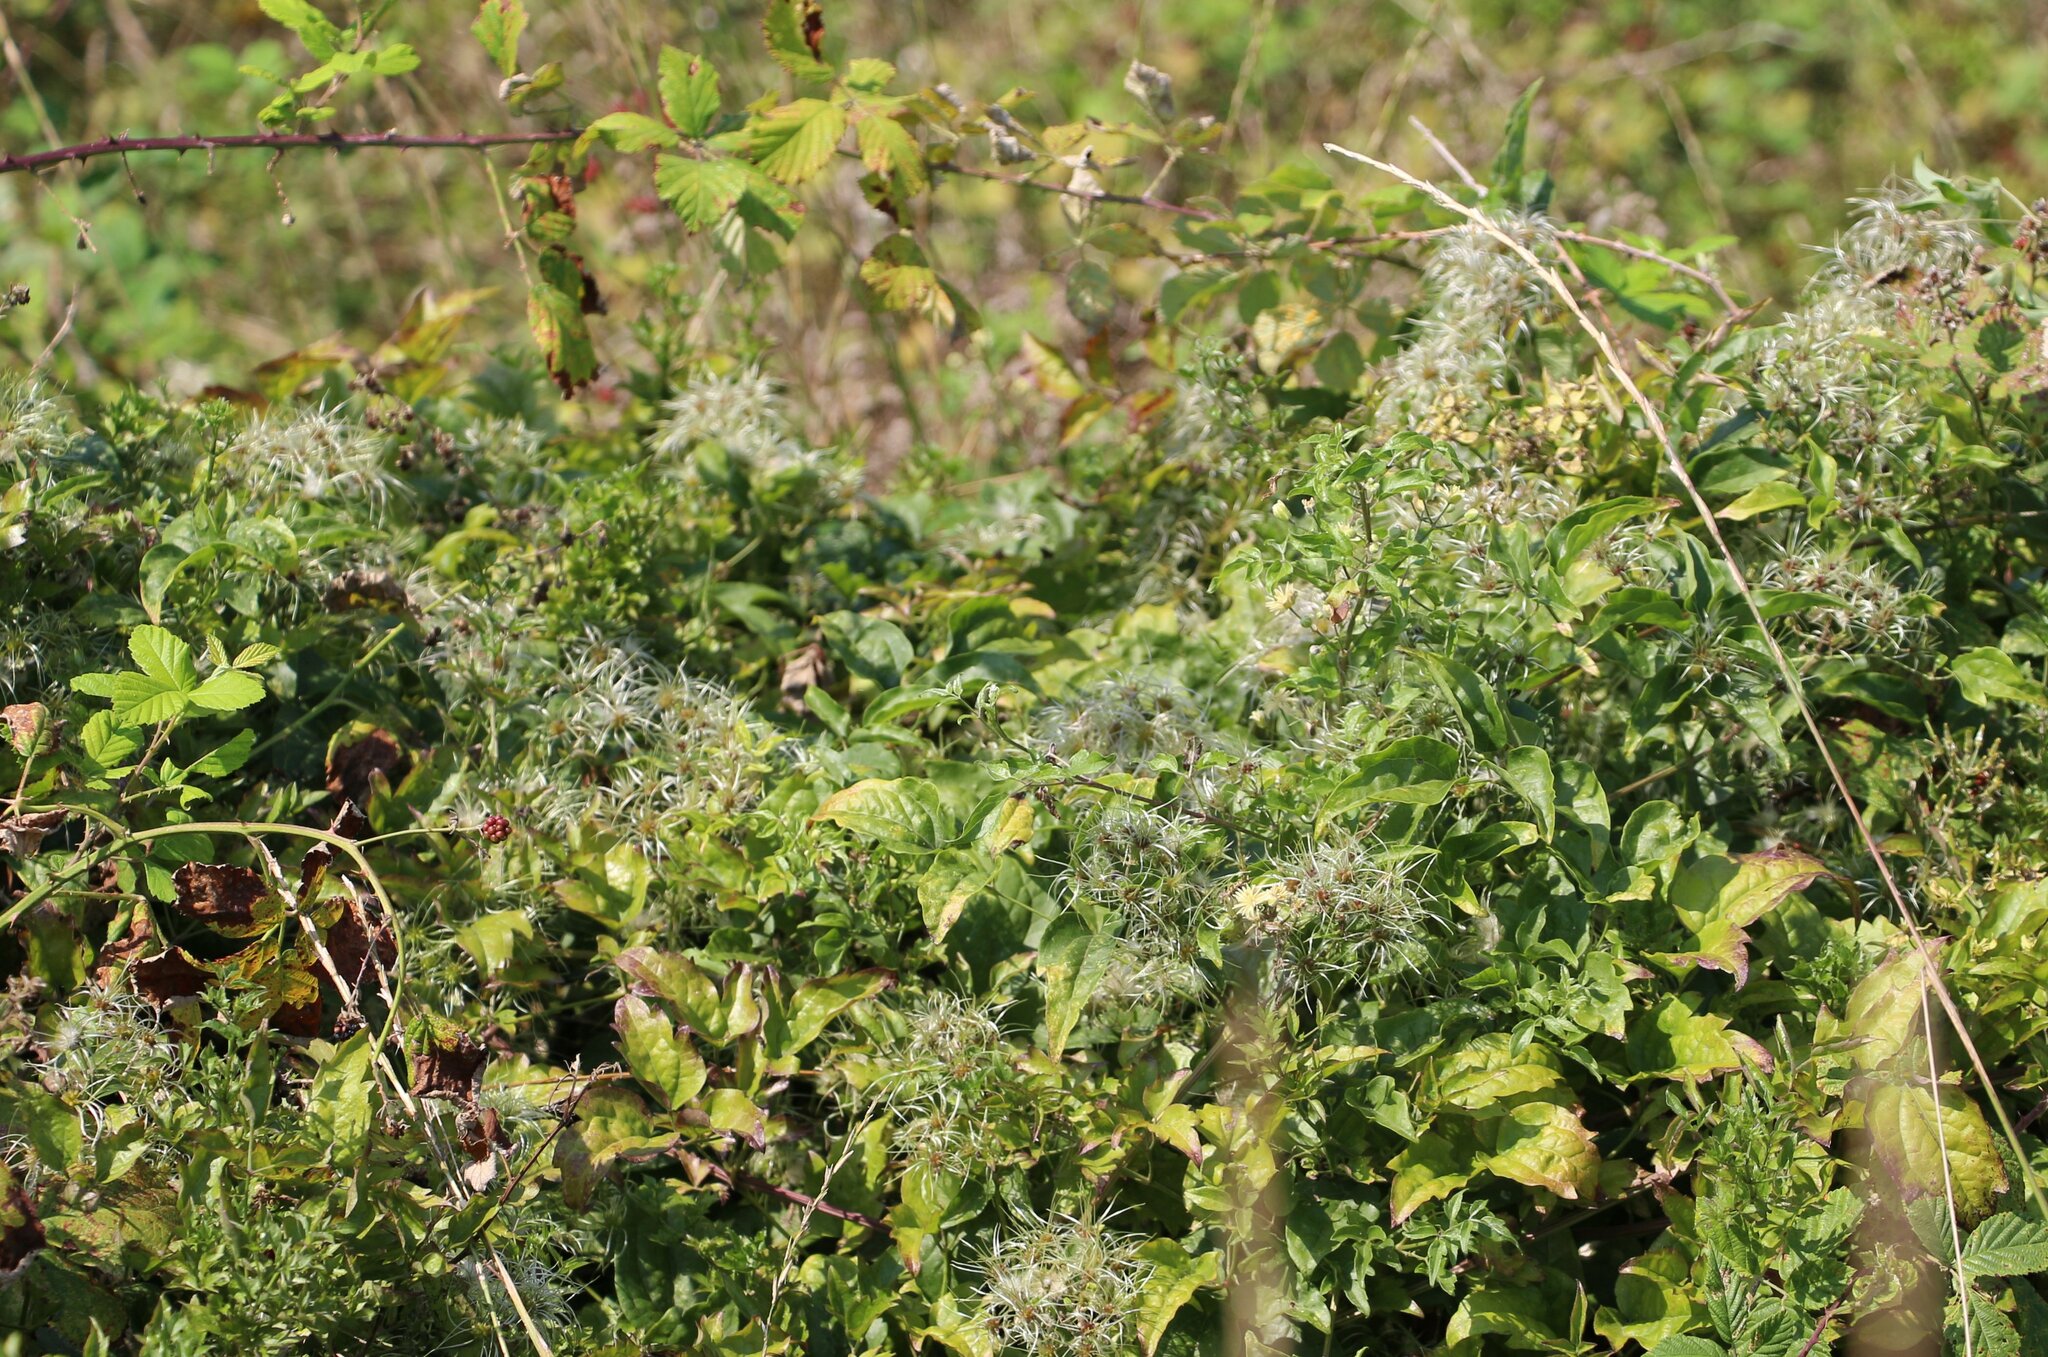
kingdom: Plantae
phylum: Tracheophyta
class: Magnoliopsida
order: Ranunculales
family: Ranunculaceae
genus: Clematis
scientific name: Clematis vitalba
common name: Evergreen clematis
